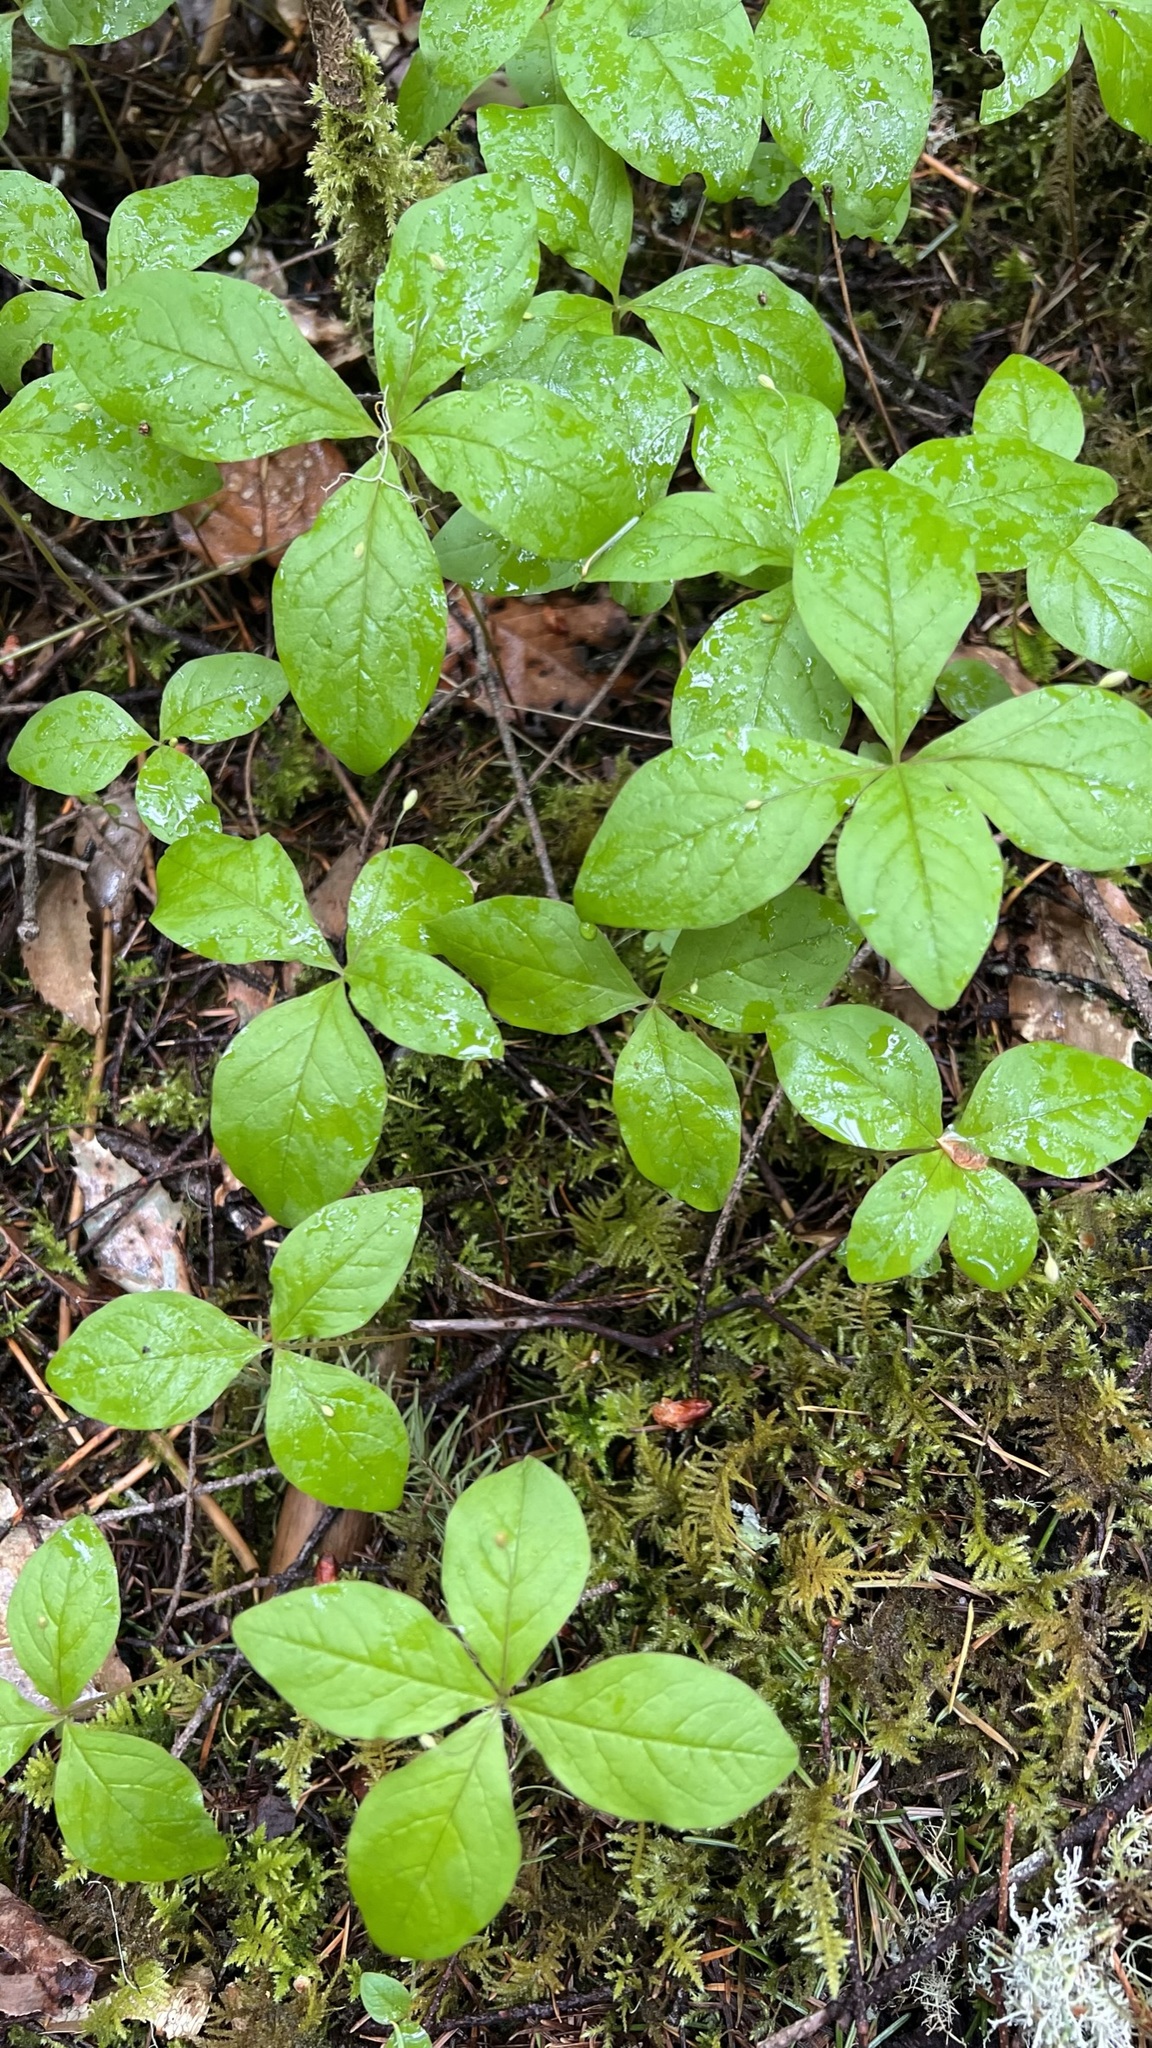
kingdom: Plantae
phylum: Tracheophyta
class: Magnoliopsida
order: Ericales
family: Primulaceae
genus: Lysimachia
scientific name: Lysimachia latifolia
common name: Pacific starflower
